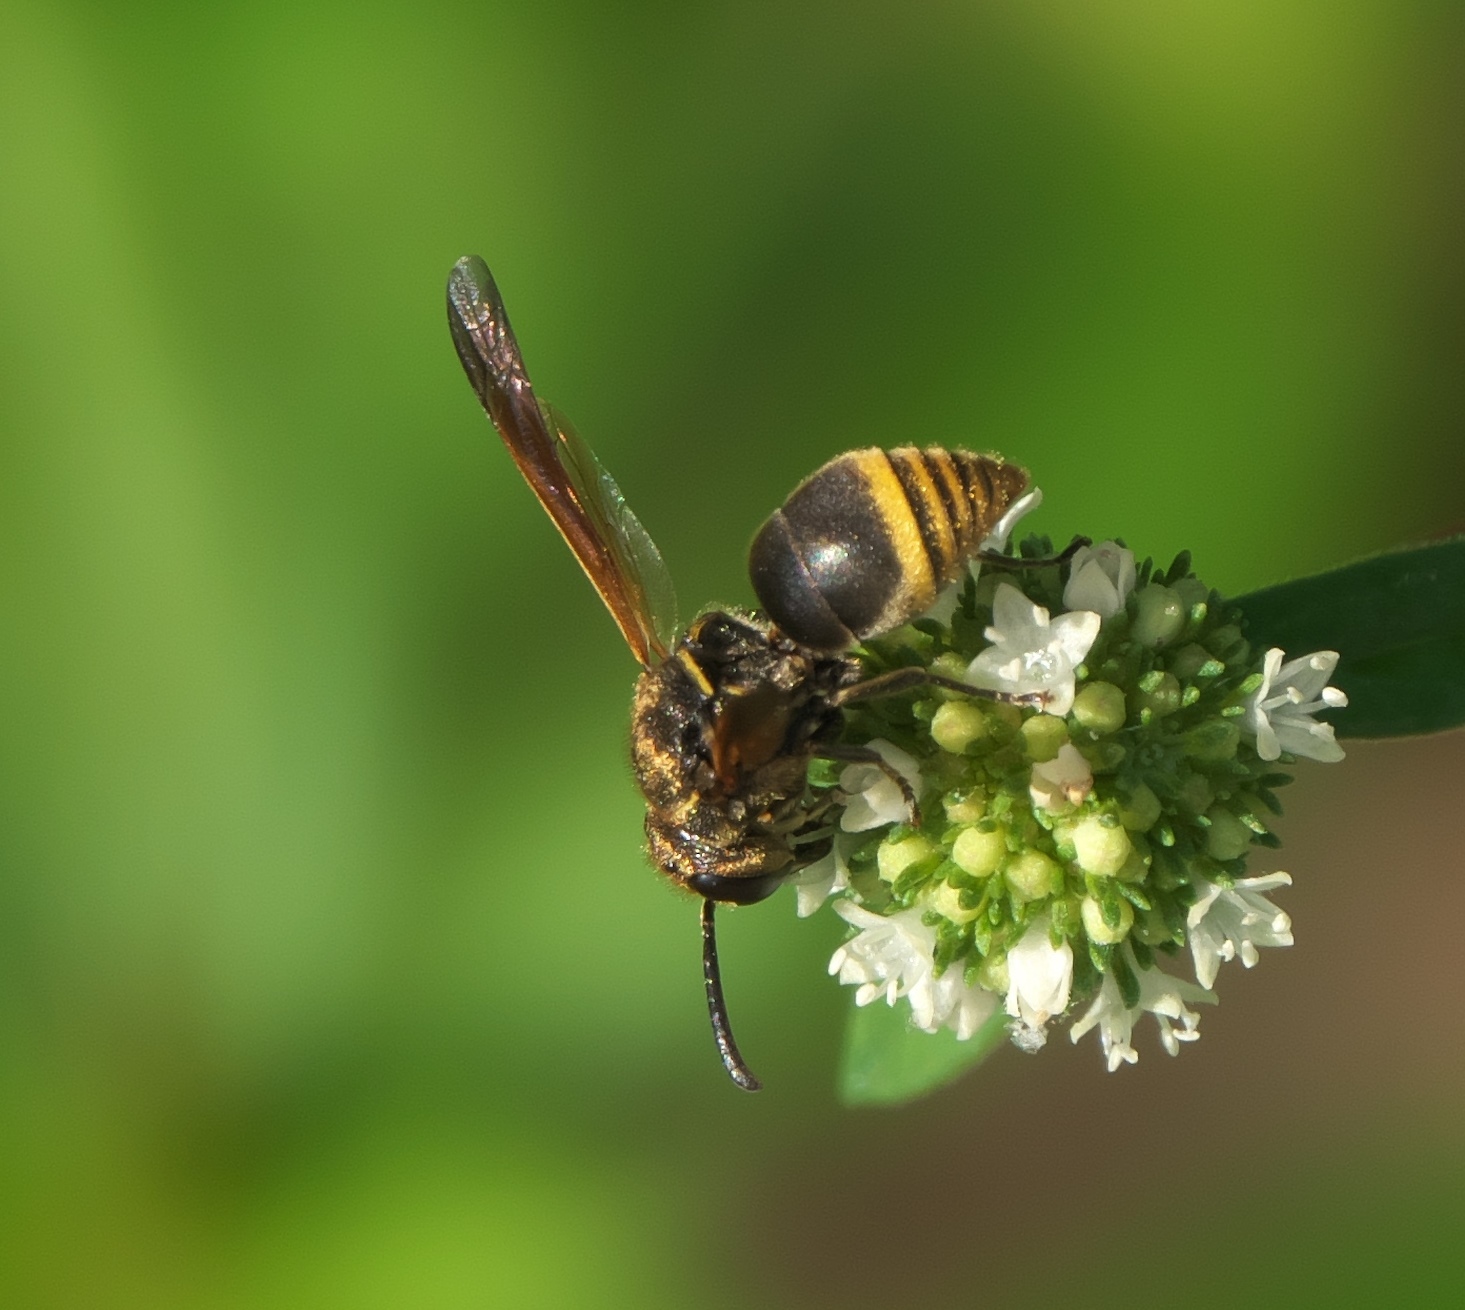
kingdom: Animalia
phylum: Arthropoda
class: Insecta
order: Hymenoptera
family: Eumenidae
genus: Pachodynerus
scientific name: Pachodynerus nasidens
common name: Key hole wasp
